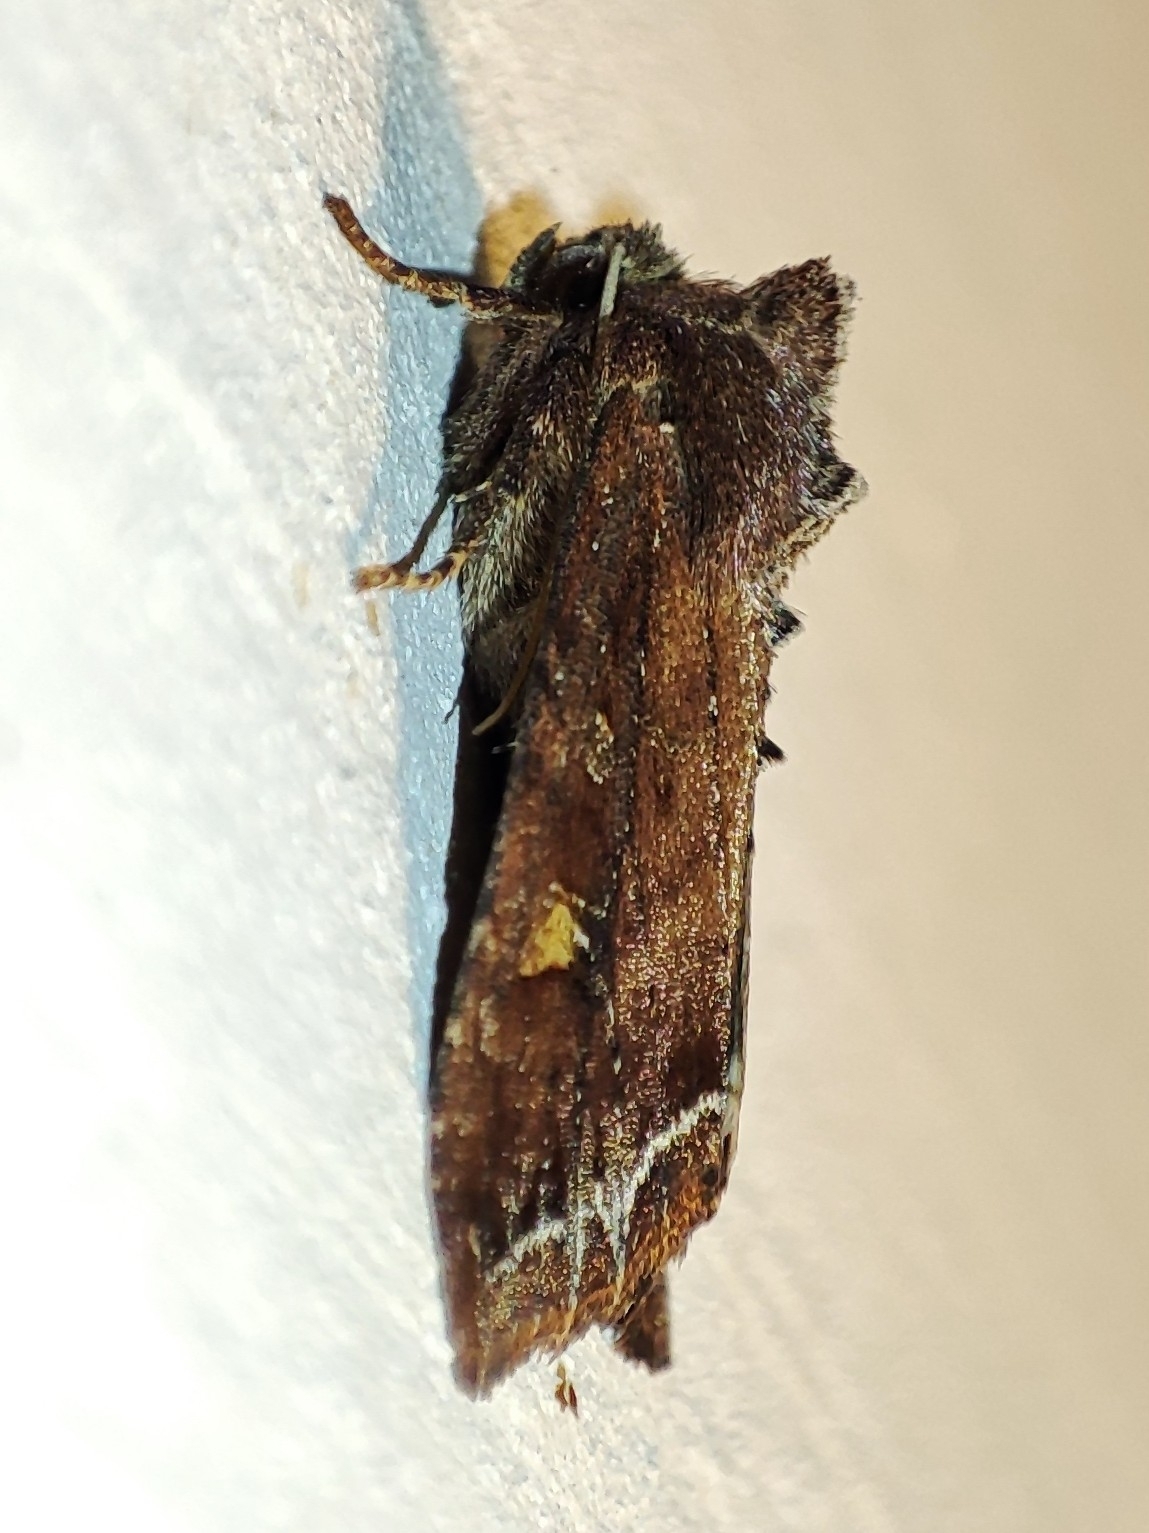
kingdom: Animalia
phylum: Arthropoda
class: Insecta
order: Lepidoptera
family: Noctuidae
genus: Lacanobia
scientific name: Lacanobia oleracea
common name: Bright-line brown-eye
